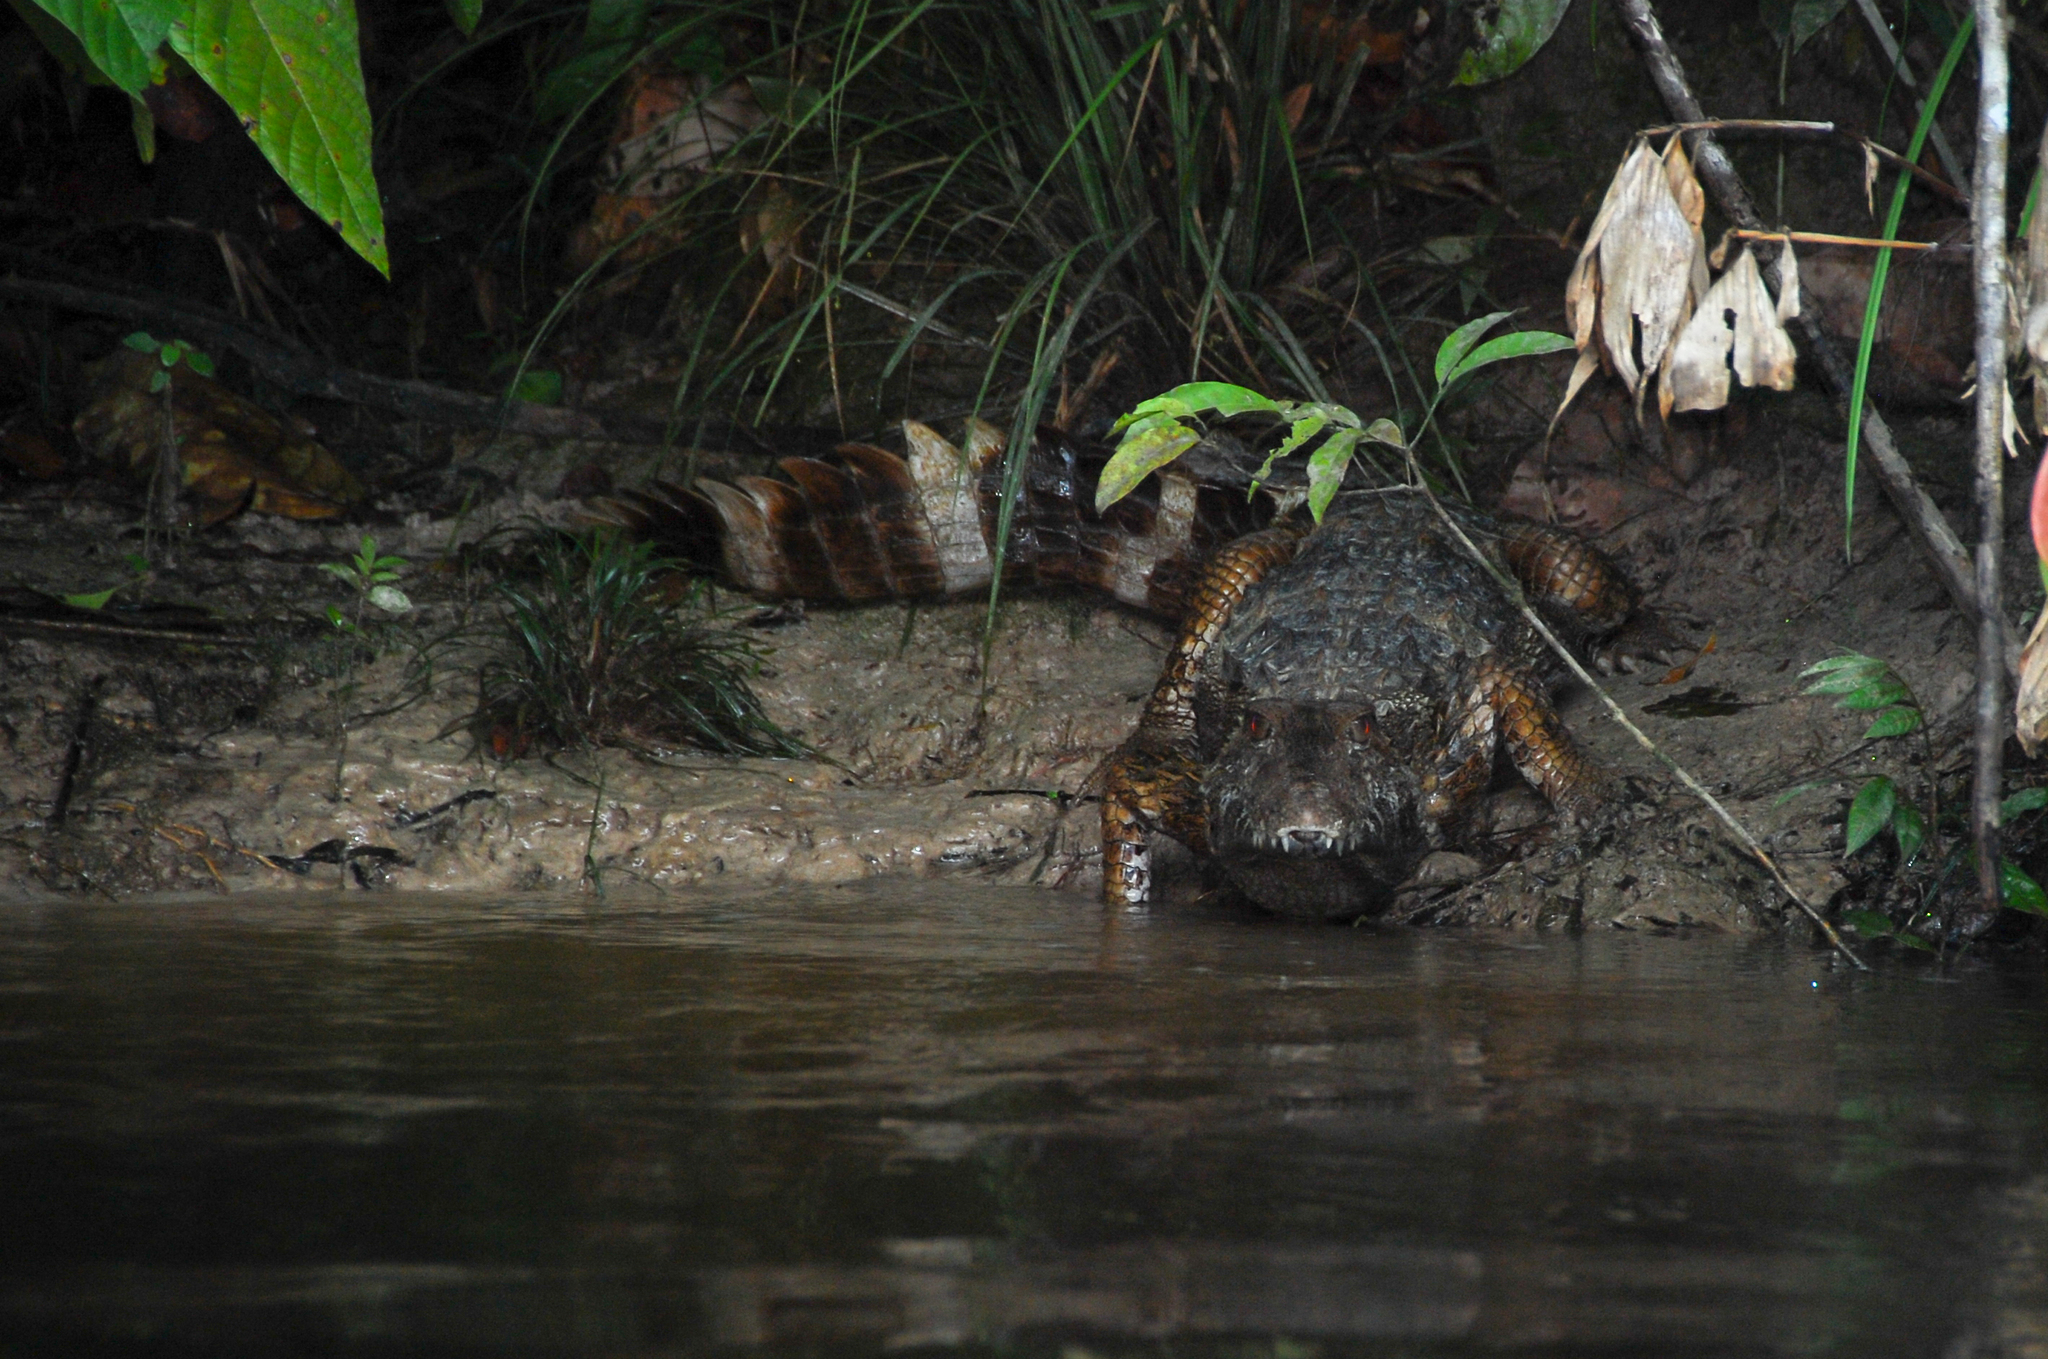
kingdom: Animalia
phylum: Chordata
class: Crocodylia
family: Alligatoridae
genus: Paleosuchus
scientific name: Paleosuchus palpebrosus
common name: Cuvier's smooth-fronted caiman
